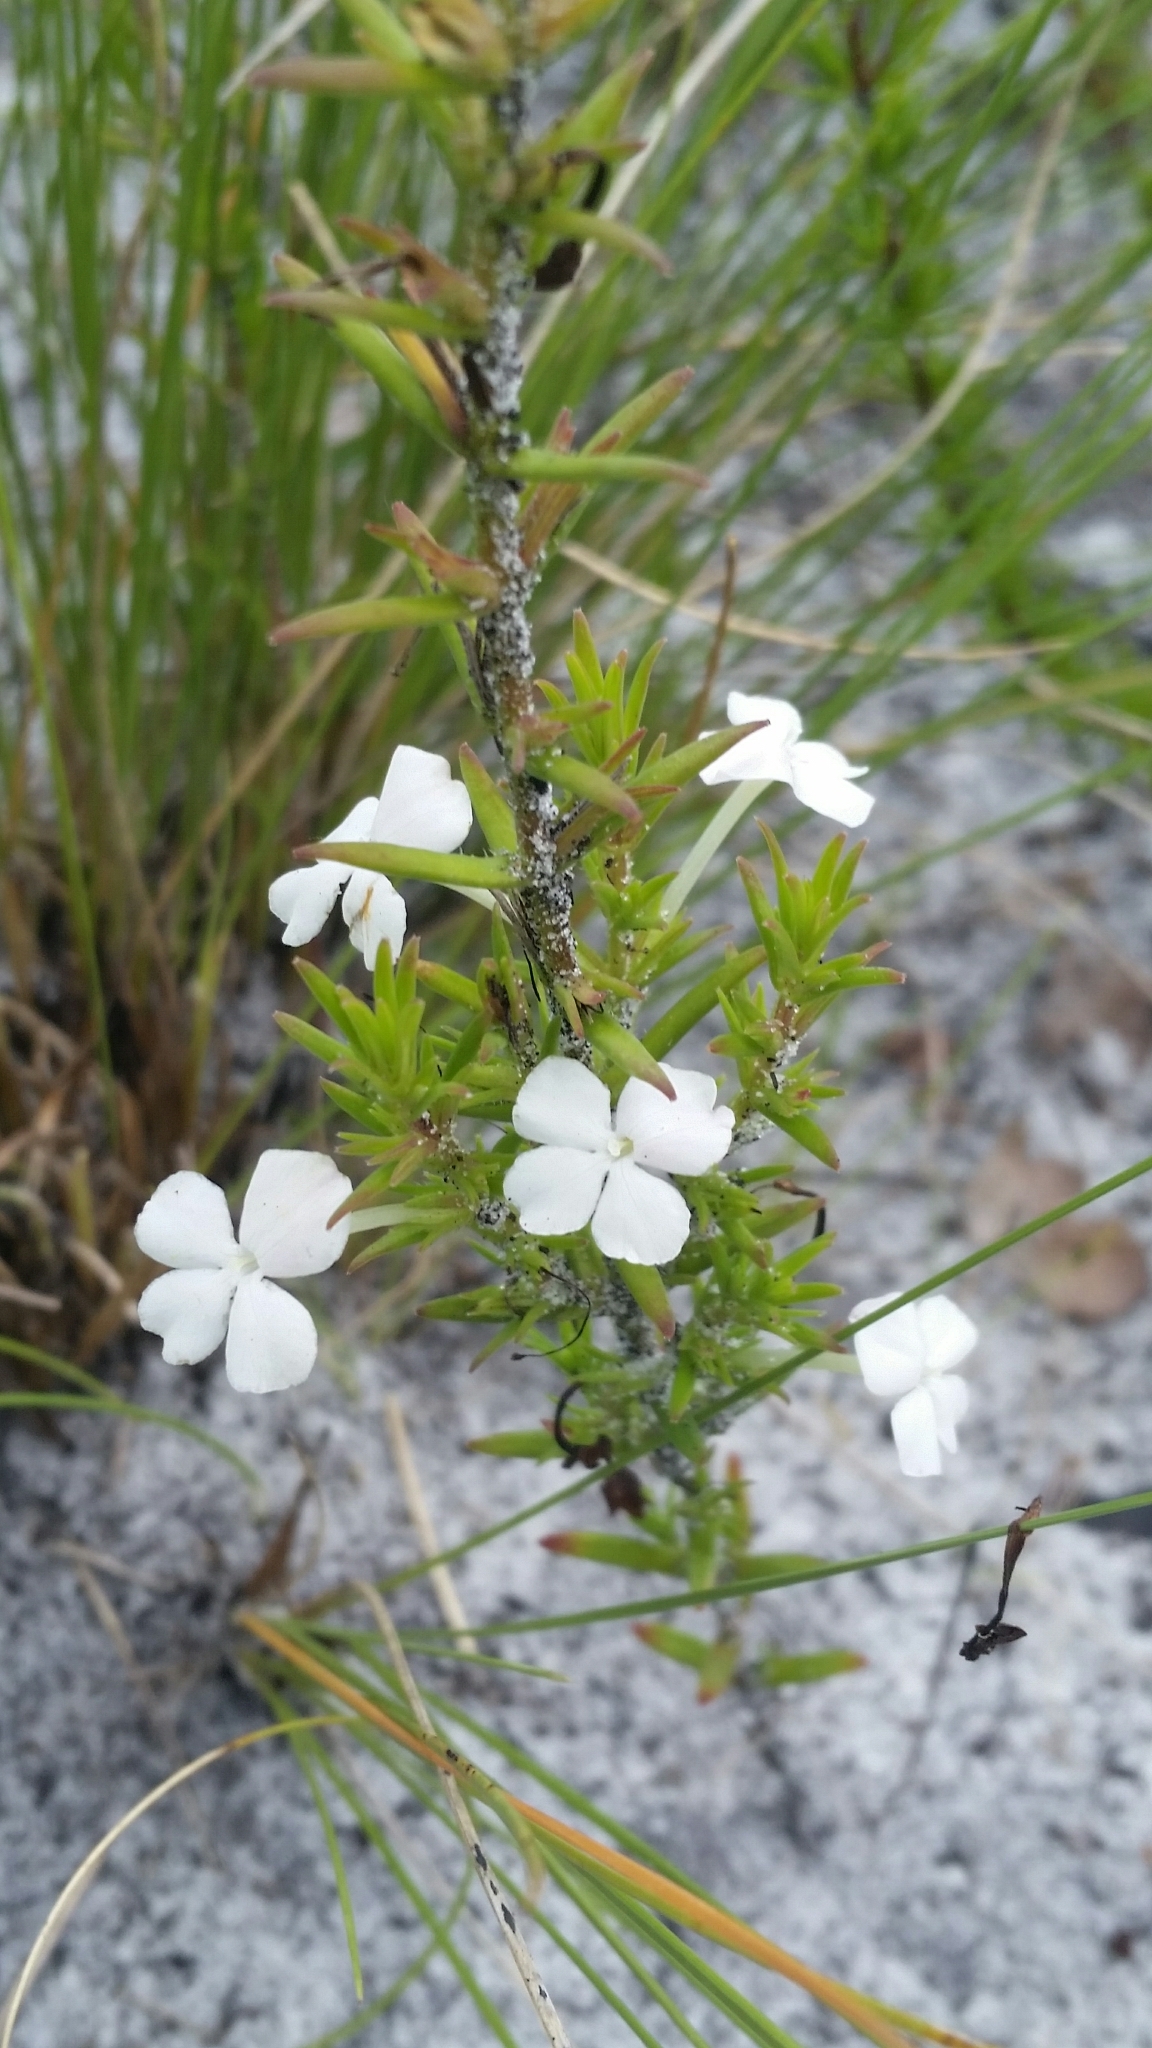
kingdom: Plantae
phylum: Tracheophyta
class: Magnoliopsida
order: Lamiales
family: Plantaginaceae
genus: Gratiola
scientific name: Gratiola hispida
